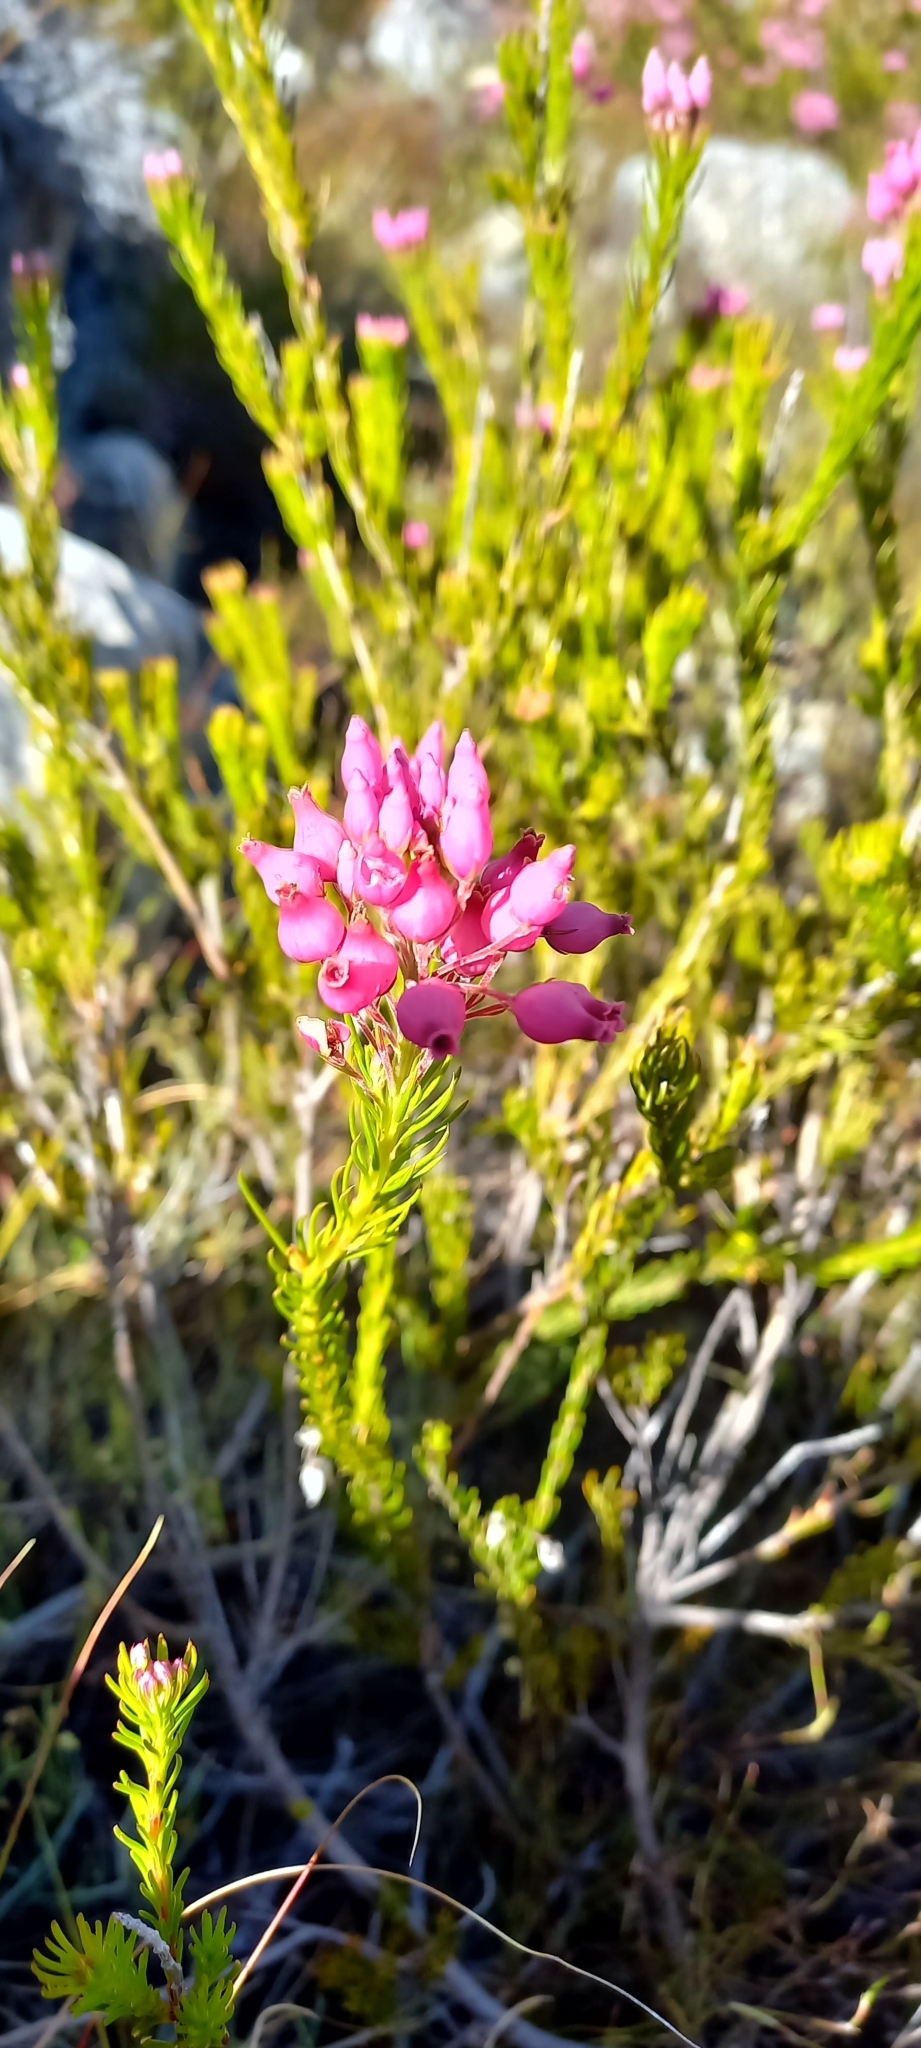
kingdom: Plantae
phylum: Tracheophyta
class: Magnoliopsida
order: Ericales
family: Ericaceae
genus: Erica
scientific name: Erica inflata
